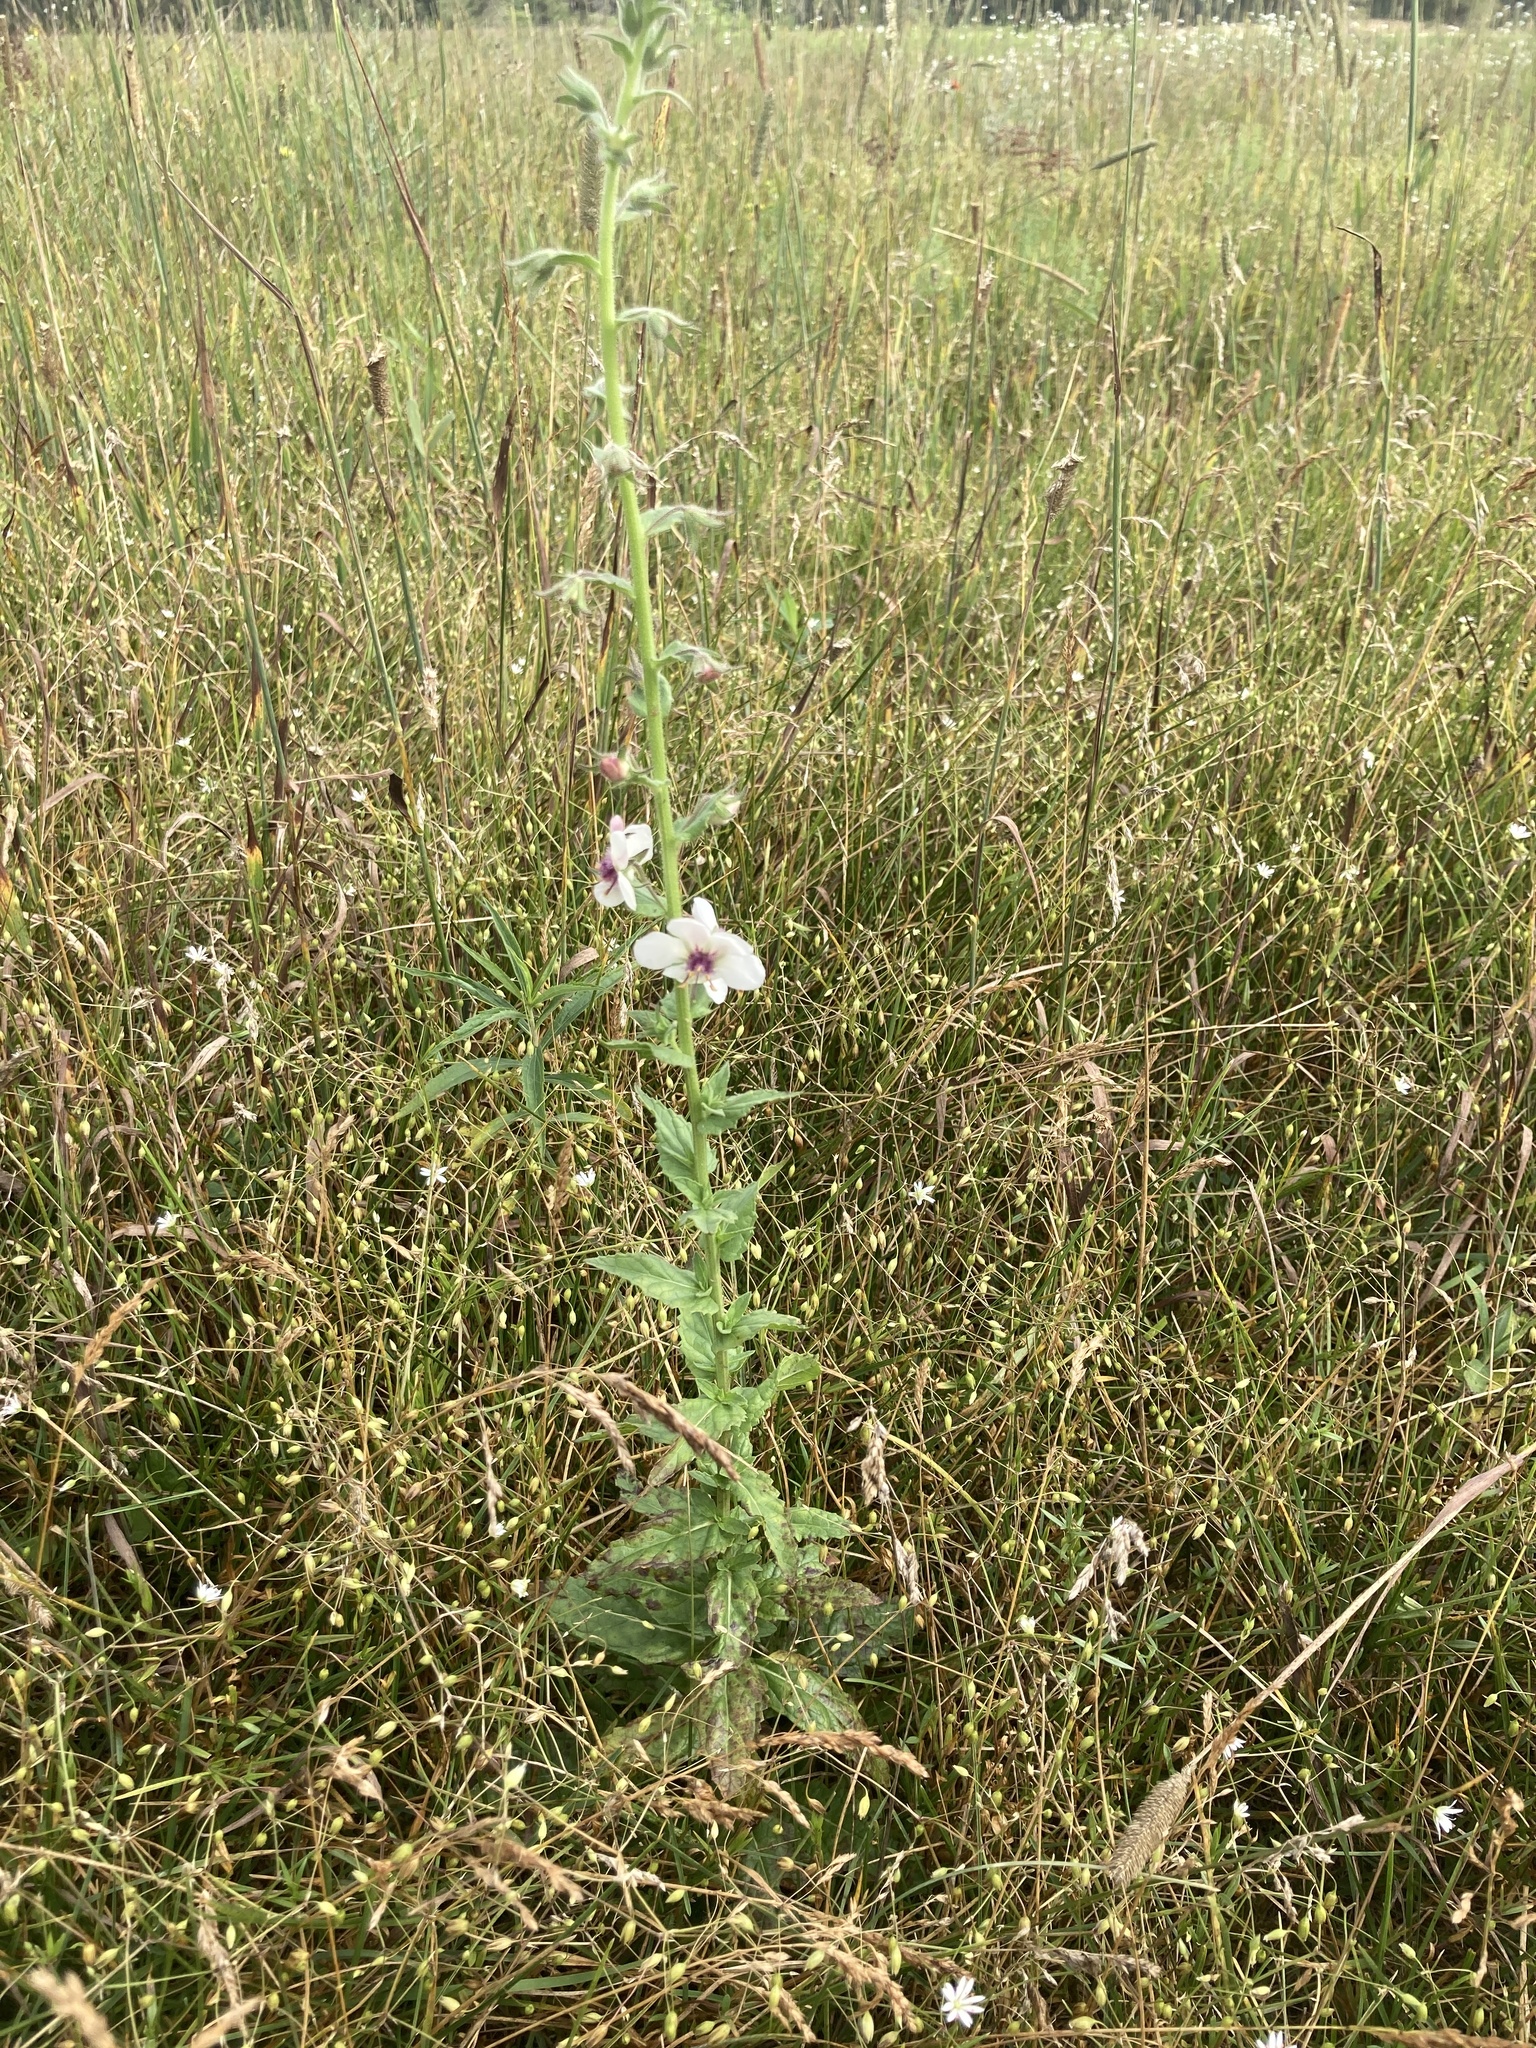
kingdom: Plantae
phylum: Tracheophyta
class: Magnoliopsida
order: Lamiales
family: Scrophulariaceae
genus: Verbascum
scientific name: Verbascum blattaria
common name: Moth mullein
